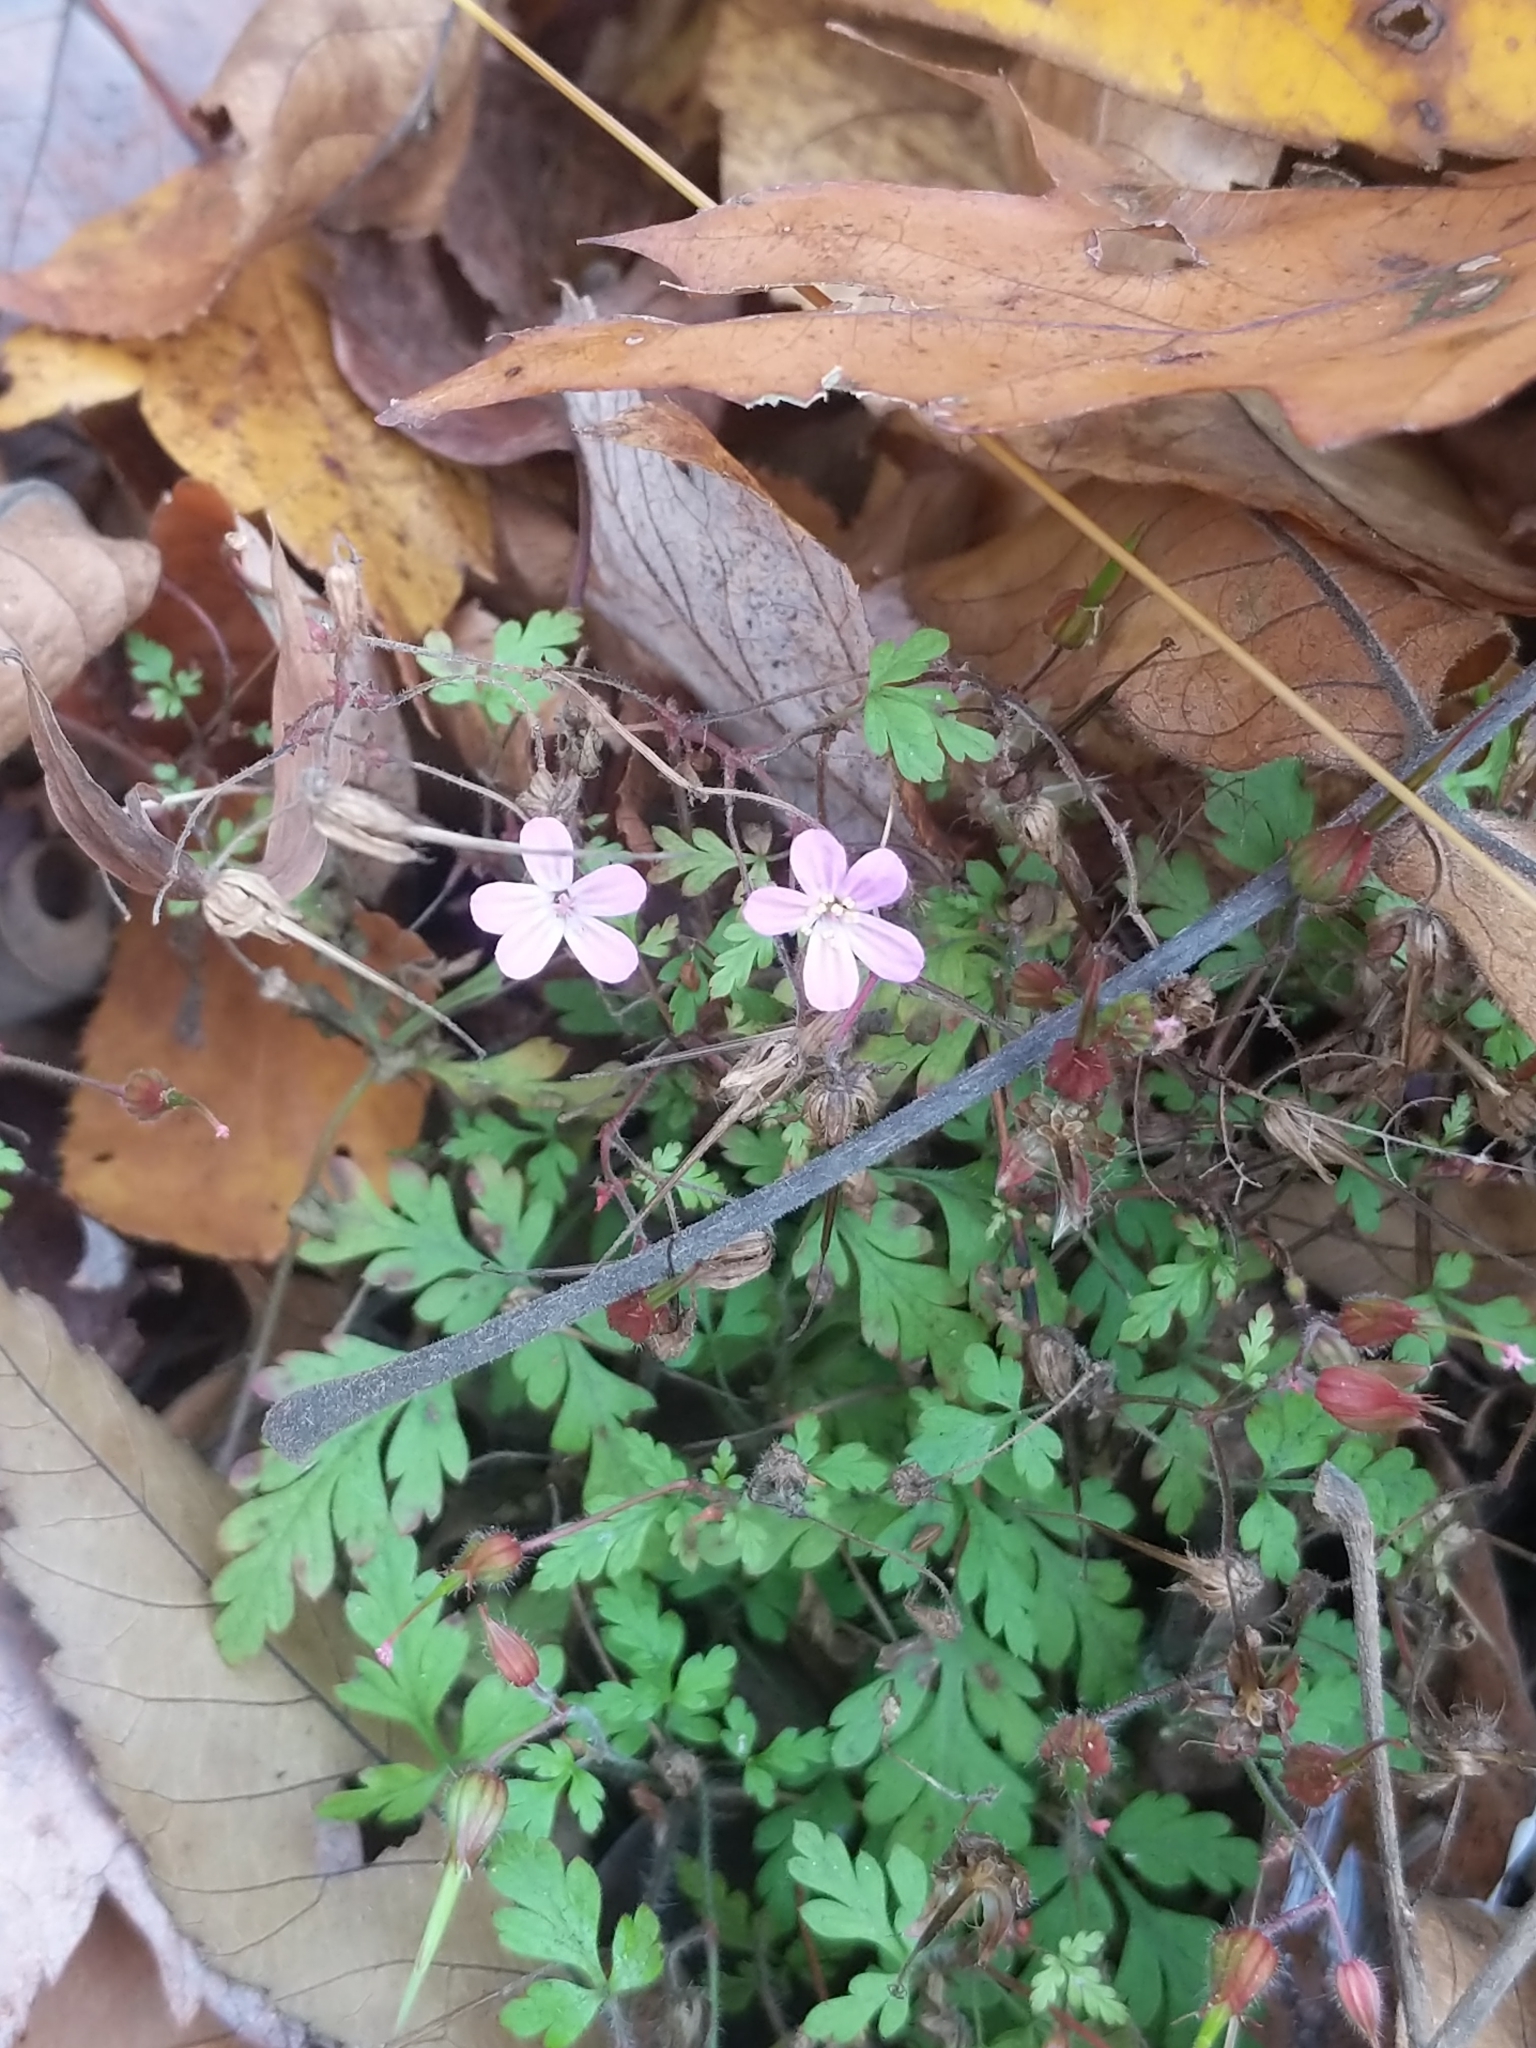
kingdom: Plantae
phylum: Tracheophyta
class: Magnoliopsida
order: Geraniales
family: Geraniaceae
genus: Geranium
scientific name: Geranium robertianum
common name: Herb-robert
